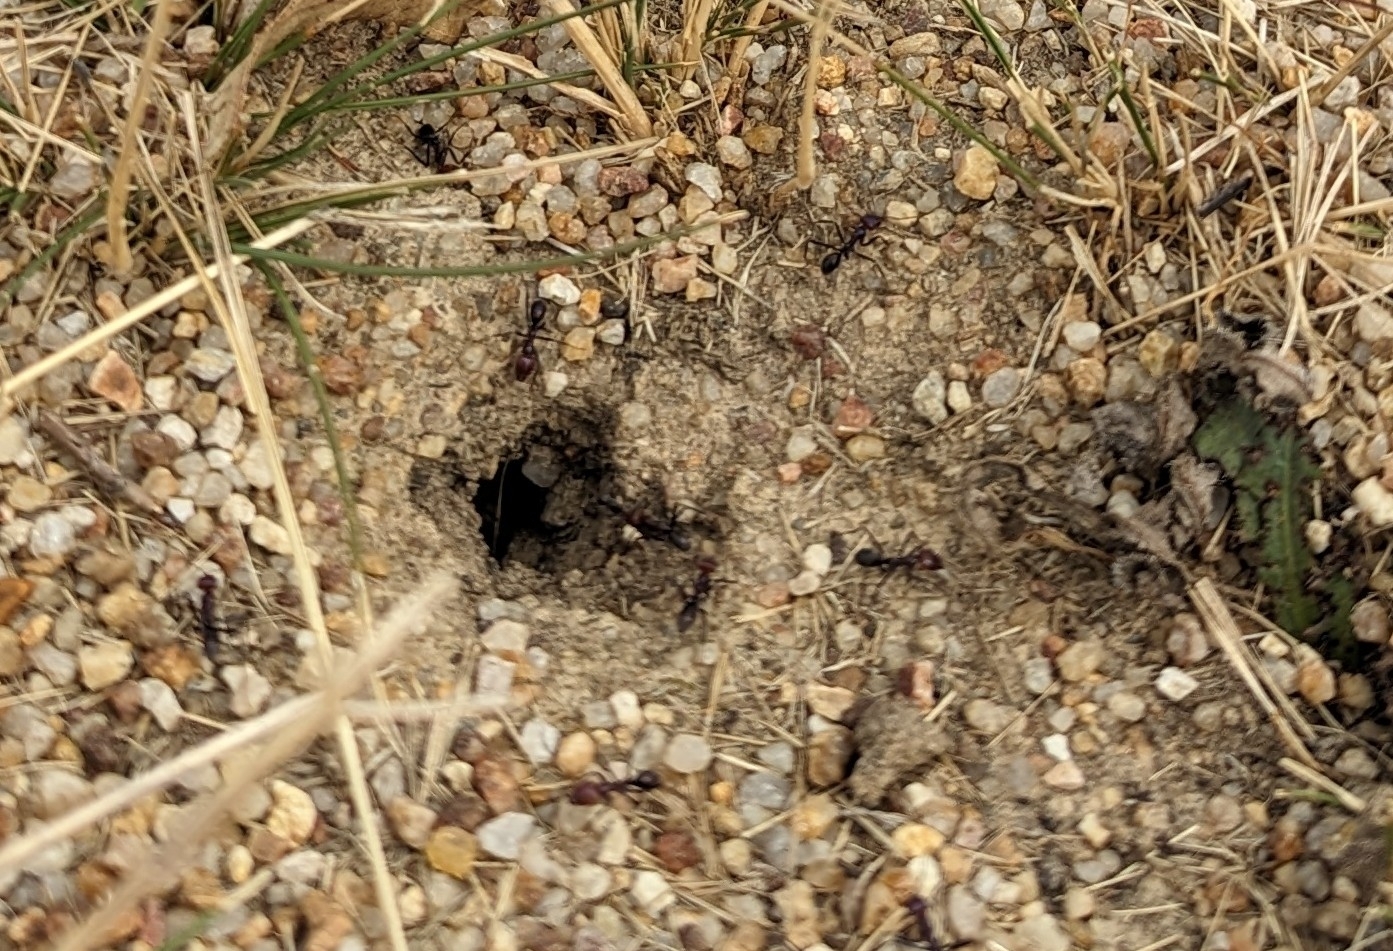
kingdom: Animalia
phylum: Arthropoda
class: Insecta
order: Hymenoptera
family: Formicidae
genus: Iridomyrmex
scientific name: Iridomyrmex purpureus
